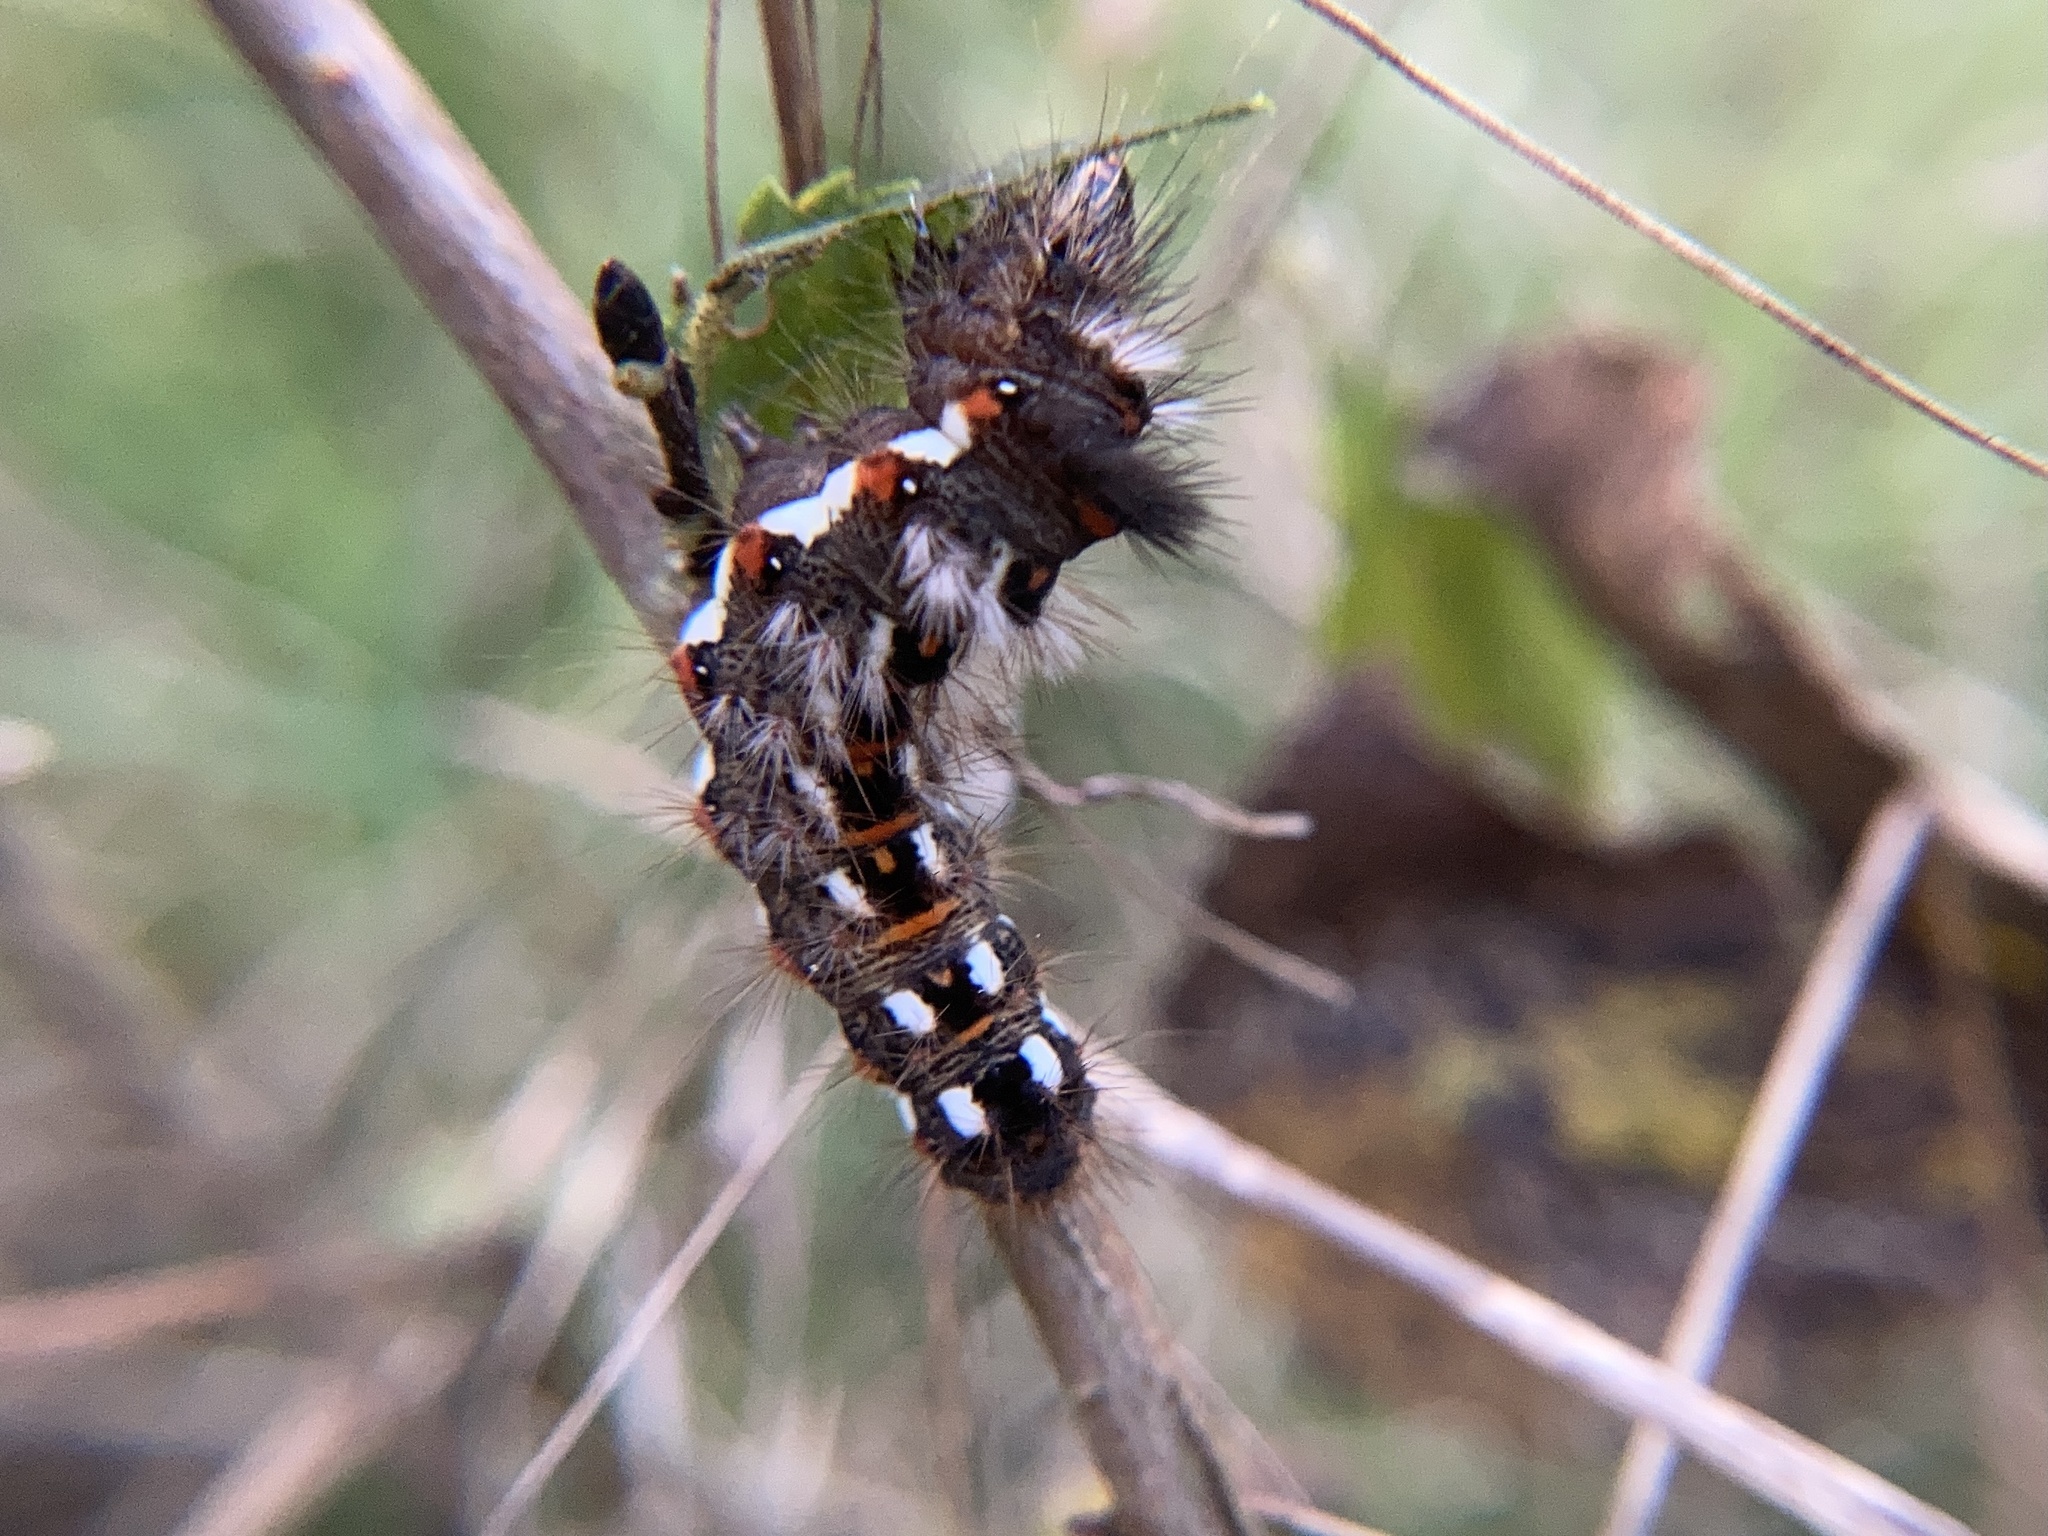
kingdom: Animalia
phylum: Arthropoda
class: Insecta
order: Lepidoptera
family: Noctuidae
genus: Acronicta
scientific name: Acronicta rumicis
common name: Knot grass
